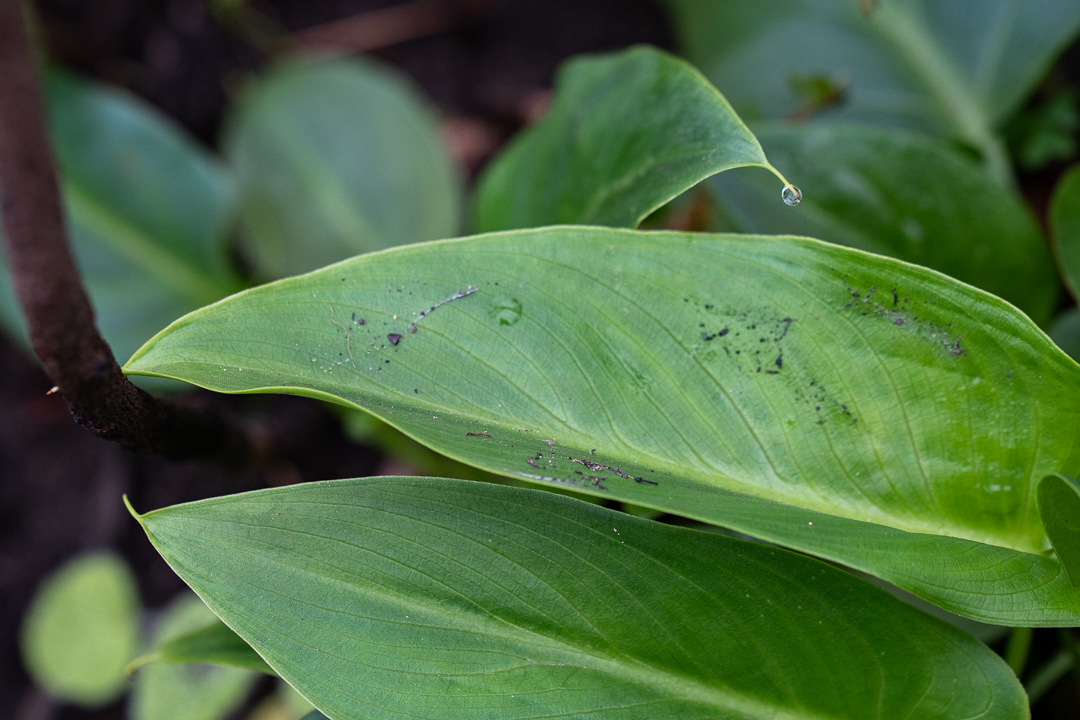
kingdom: Plantae
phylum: Tracheophyta
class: Liliopsida
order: Alismatales
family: Araceae
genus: Zantedeschia
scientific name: Zantedeschia aethiopica
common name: Altar-lily
